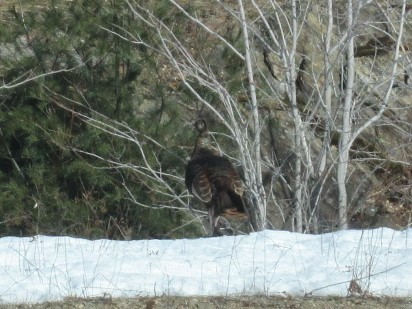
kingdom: Animalia
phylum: Chordata
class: Aves
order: Galliformes
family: Phasianidae
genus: Meleagris
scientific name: Meleagris gallopavo
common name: Wild turkey
